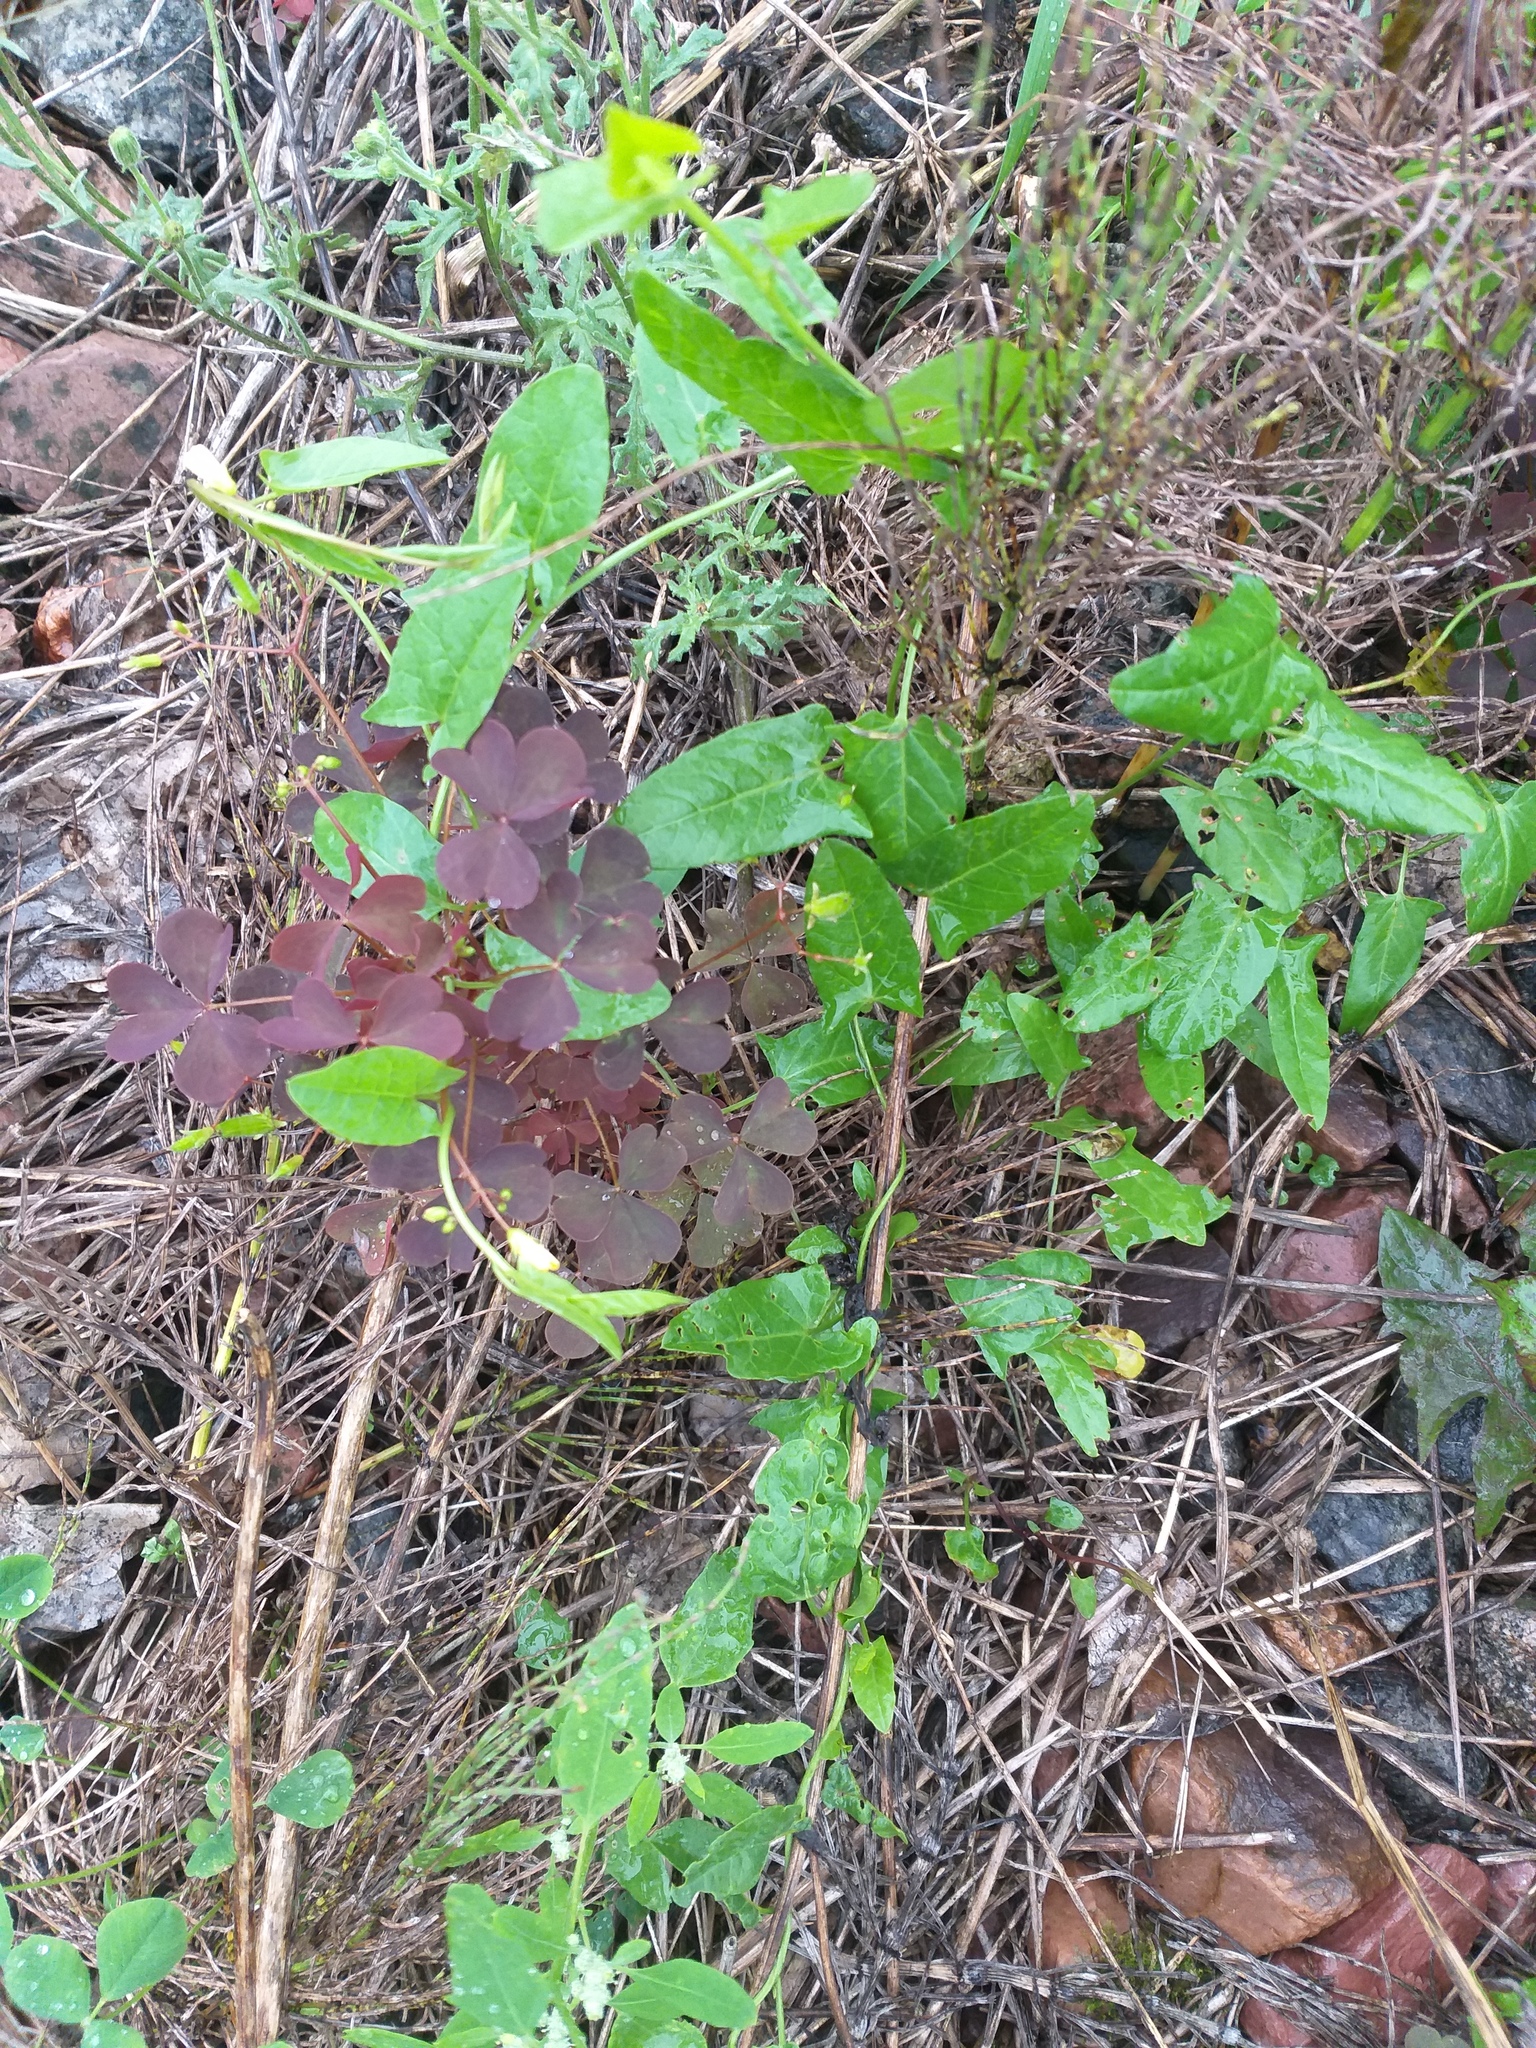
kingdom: Plantae
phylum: Tracheophyta
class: Magnoliopsida
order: Oxalidales
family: Oxalidaceae
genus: Oxalis
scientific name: Oxalis stricta
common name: Upright yellow-sorrel
